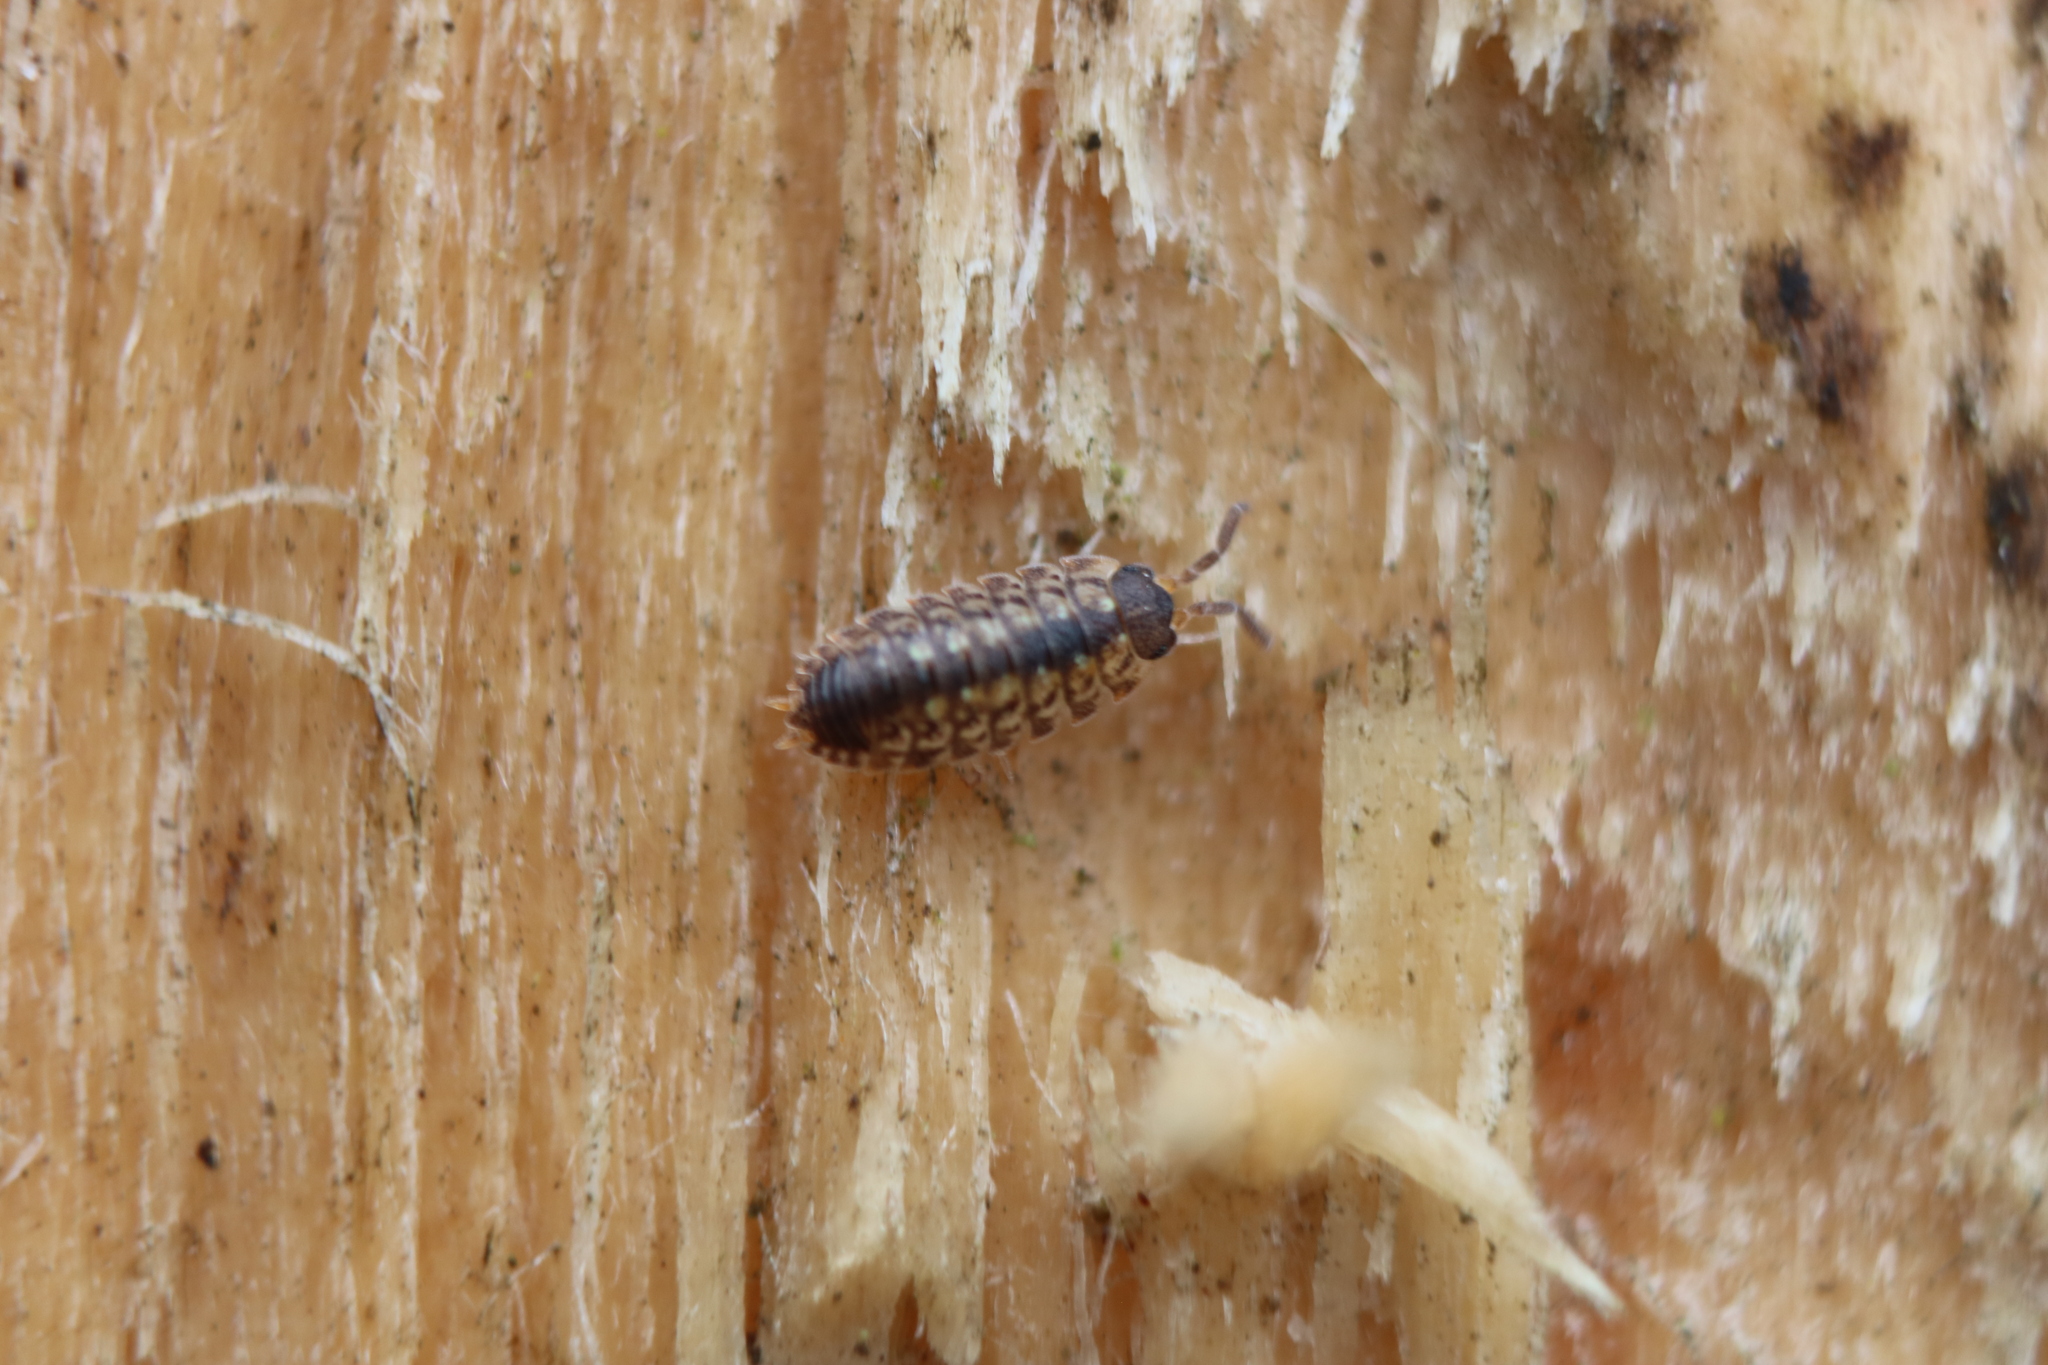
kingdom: Animalia
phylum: Arthropoda
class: Malacostraca
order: Isopoda
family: Porcellionidae
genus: Porcellio
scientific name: Porcellio spinicornis
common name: Painted woodlouse
